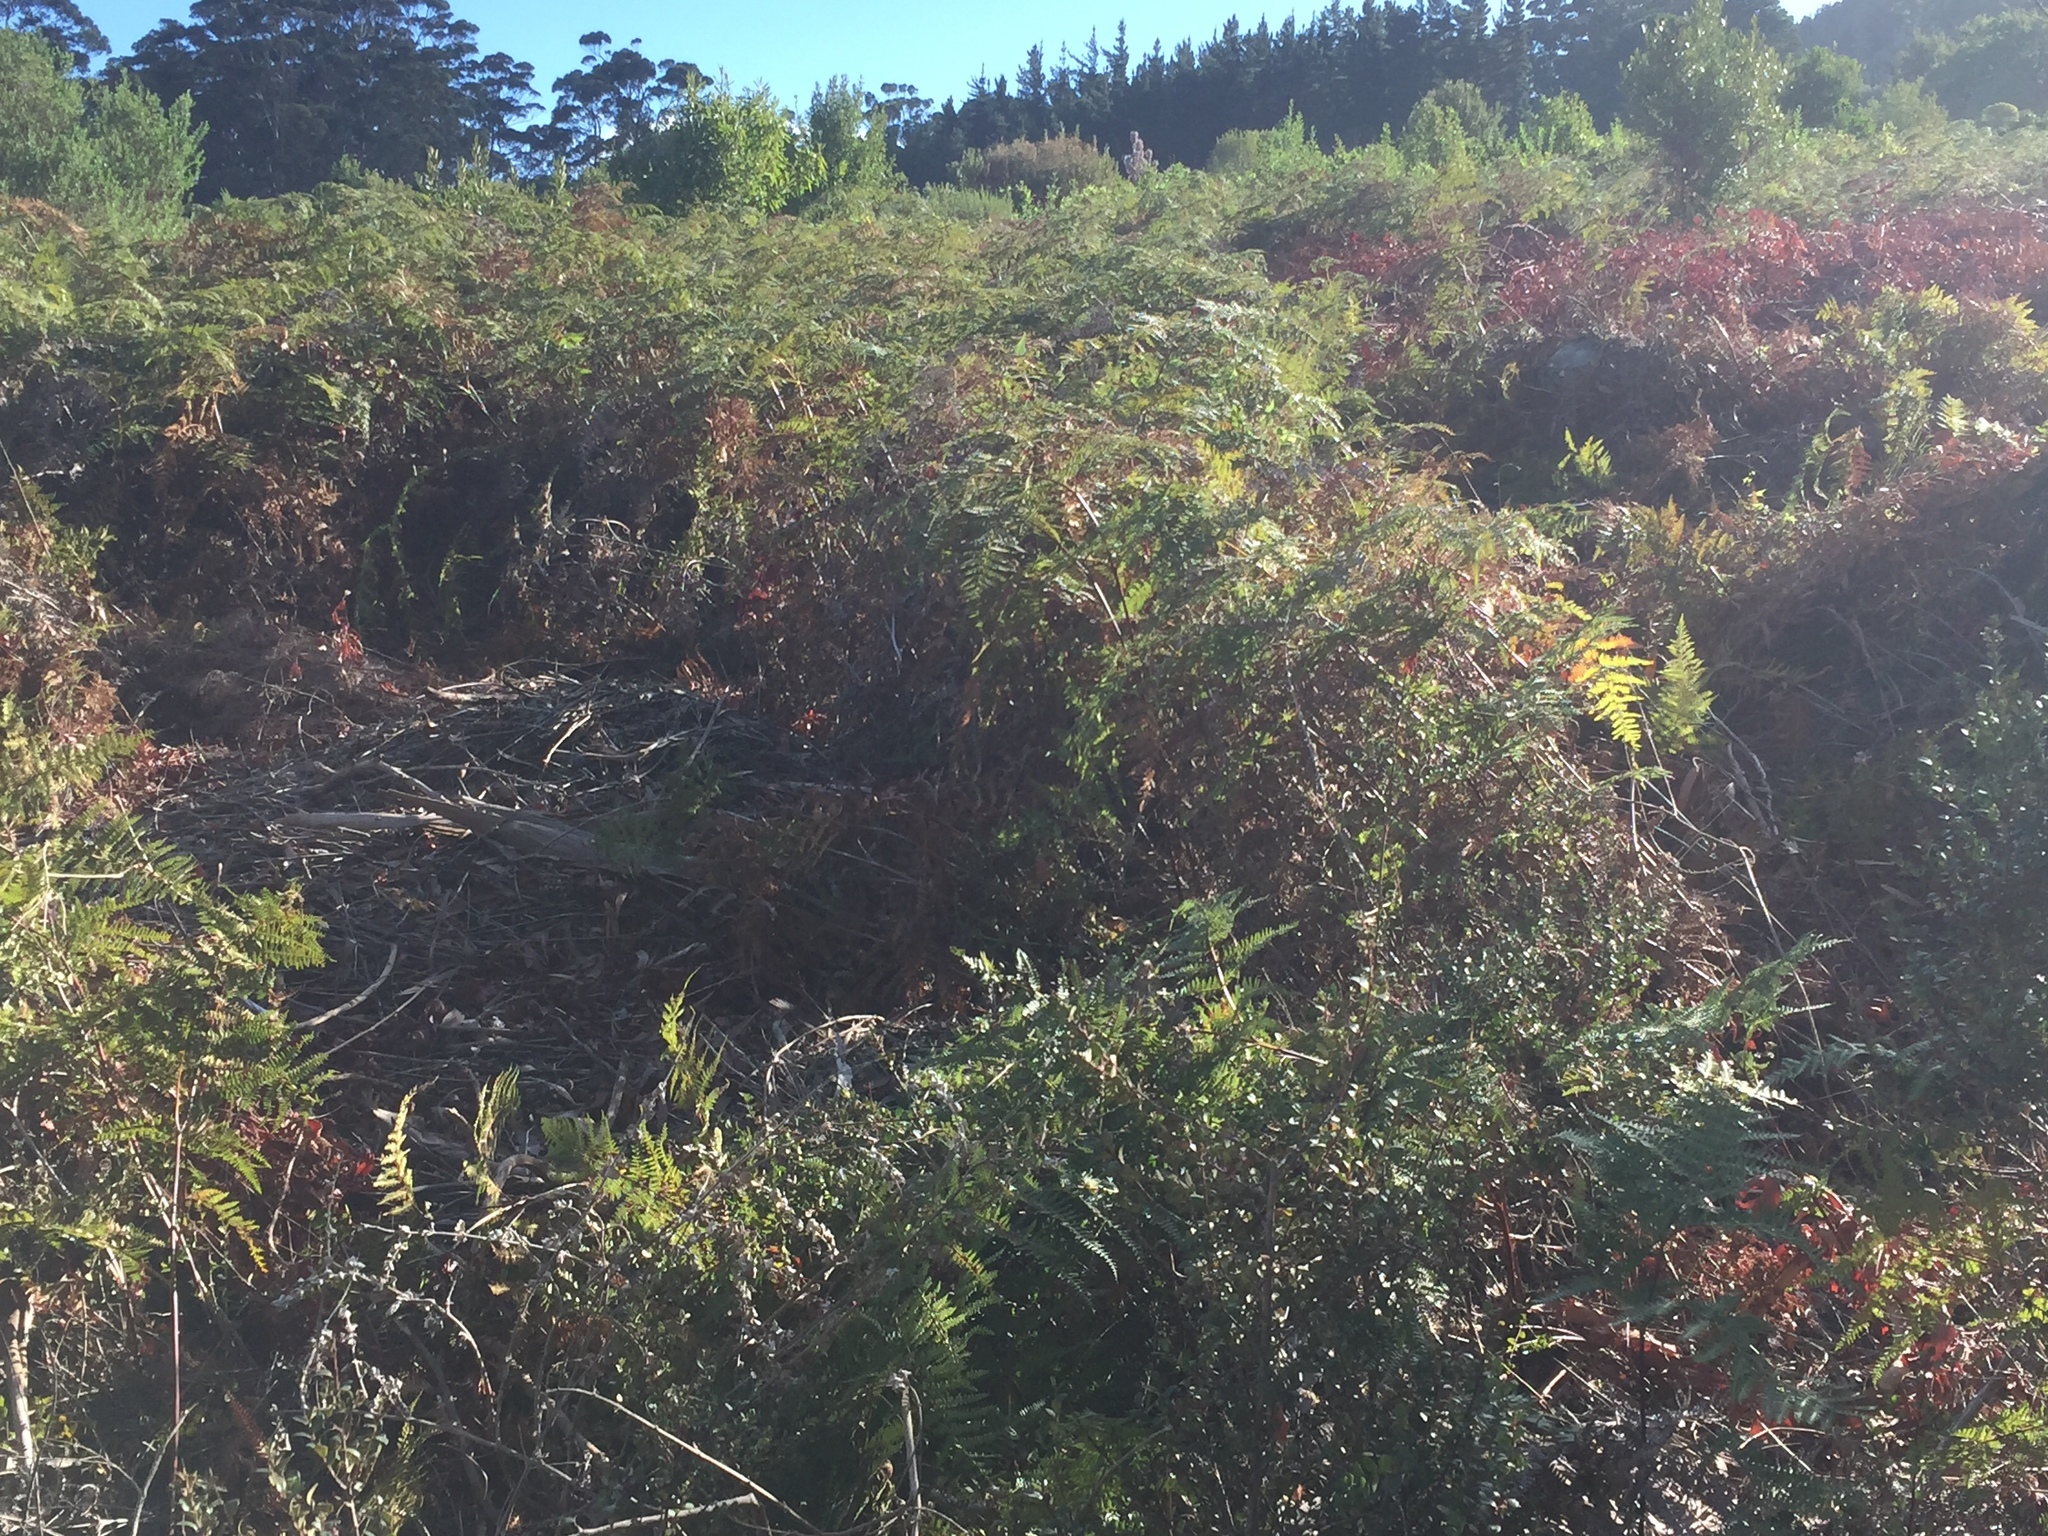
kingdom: Plantae
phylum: Tracheophyta
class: Polypodiopsida
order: Polypodiales
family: Dennstaedtiaceae
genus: Pteridium
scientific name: Pteridium aquilinum
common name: Bracken
